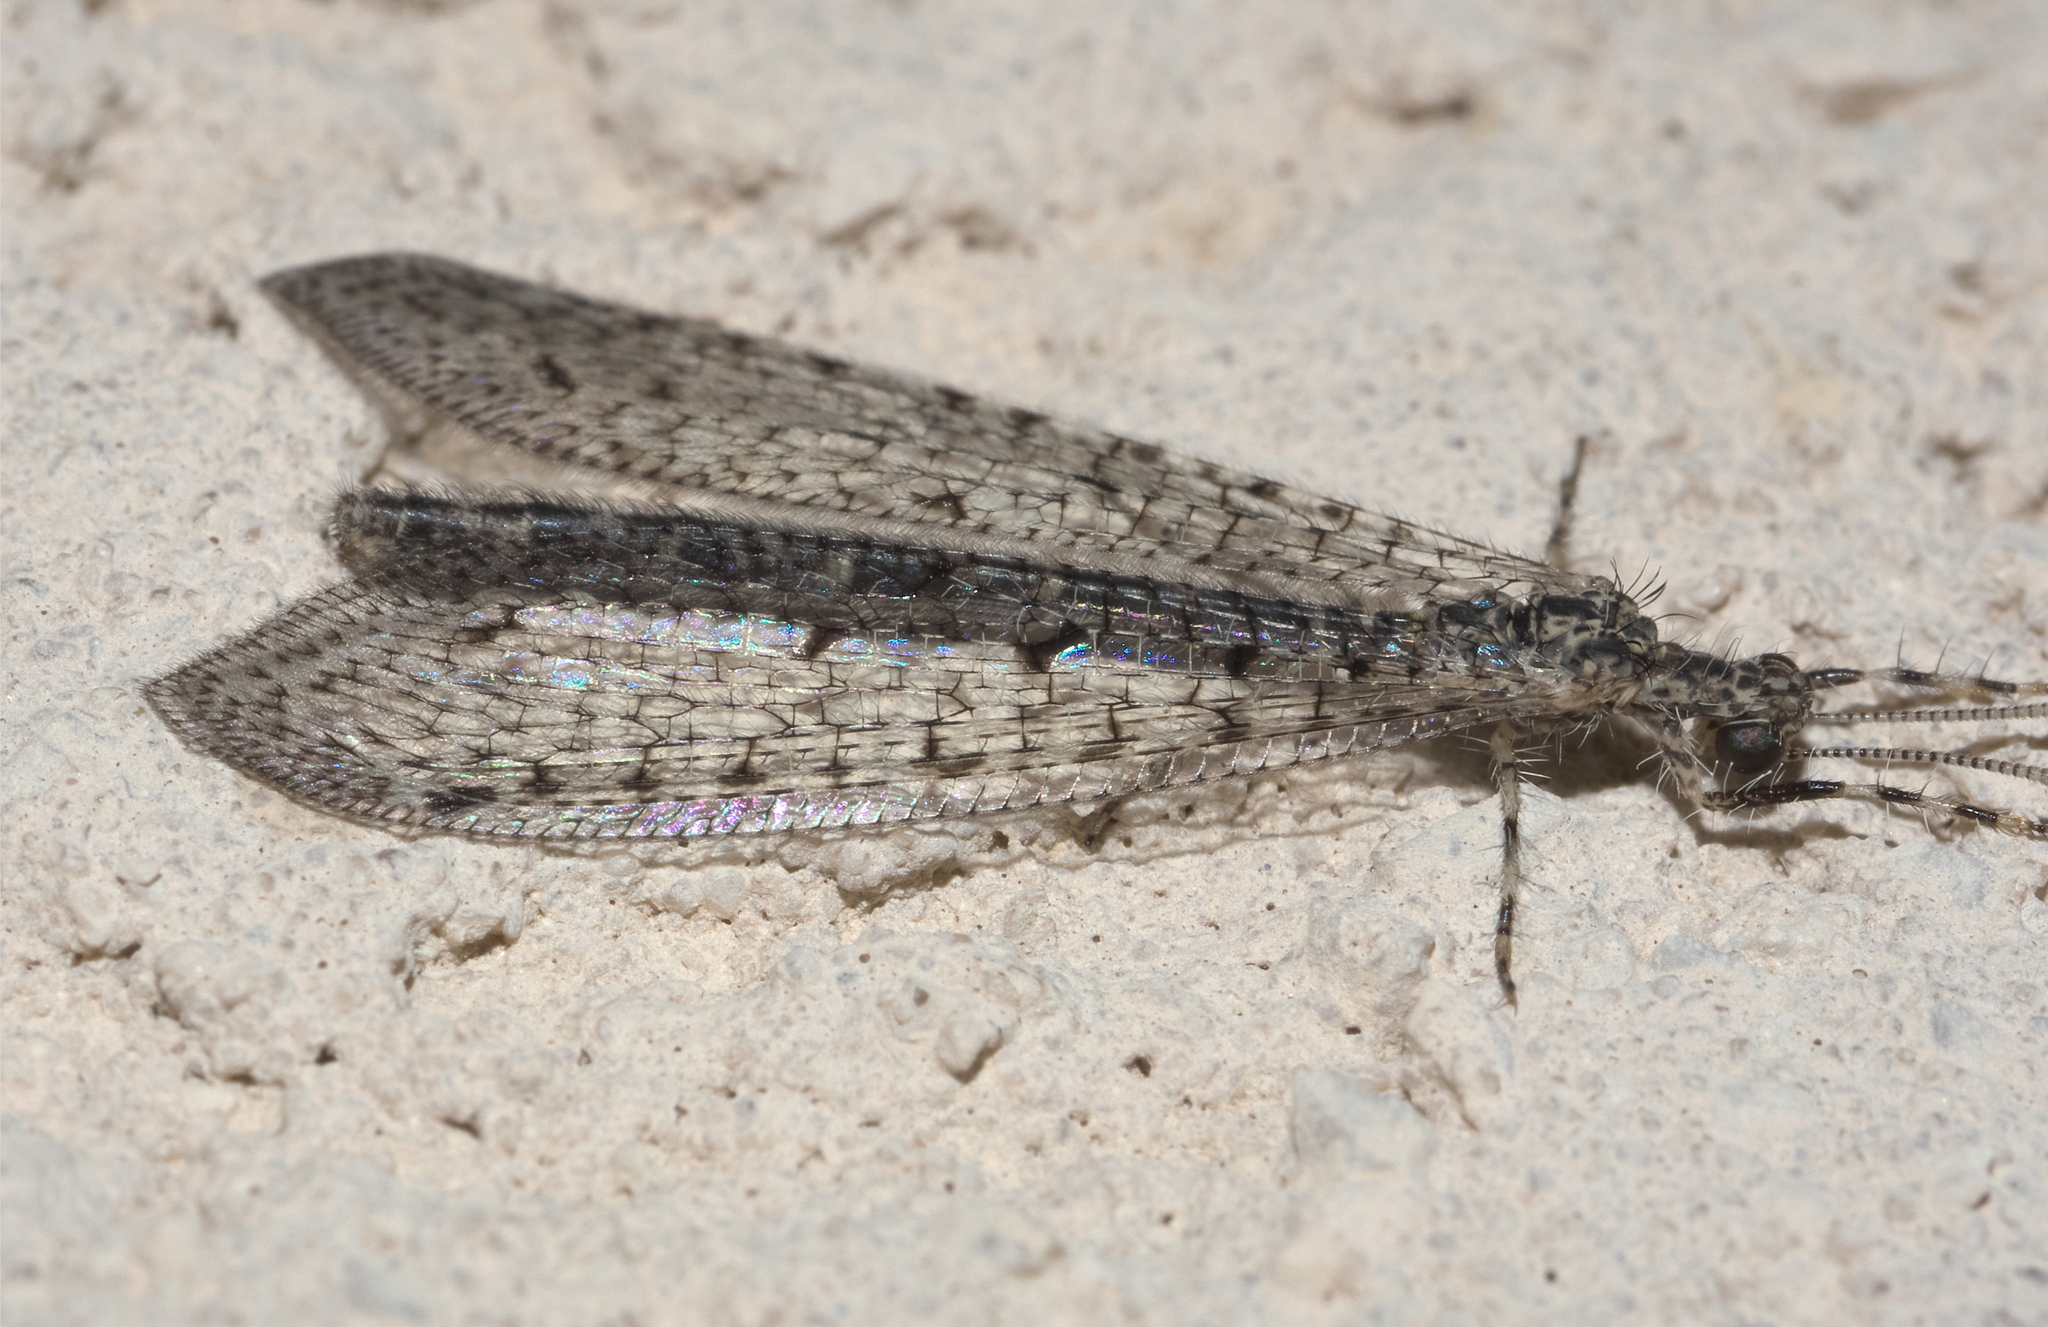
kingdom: Animalia
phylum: Arthropoda
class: Insecta
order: Neuroptera
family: Myrmeleontidae
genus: Chaetoleon
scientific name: Chaetoleon pusillus
